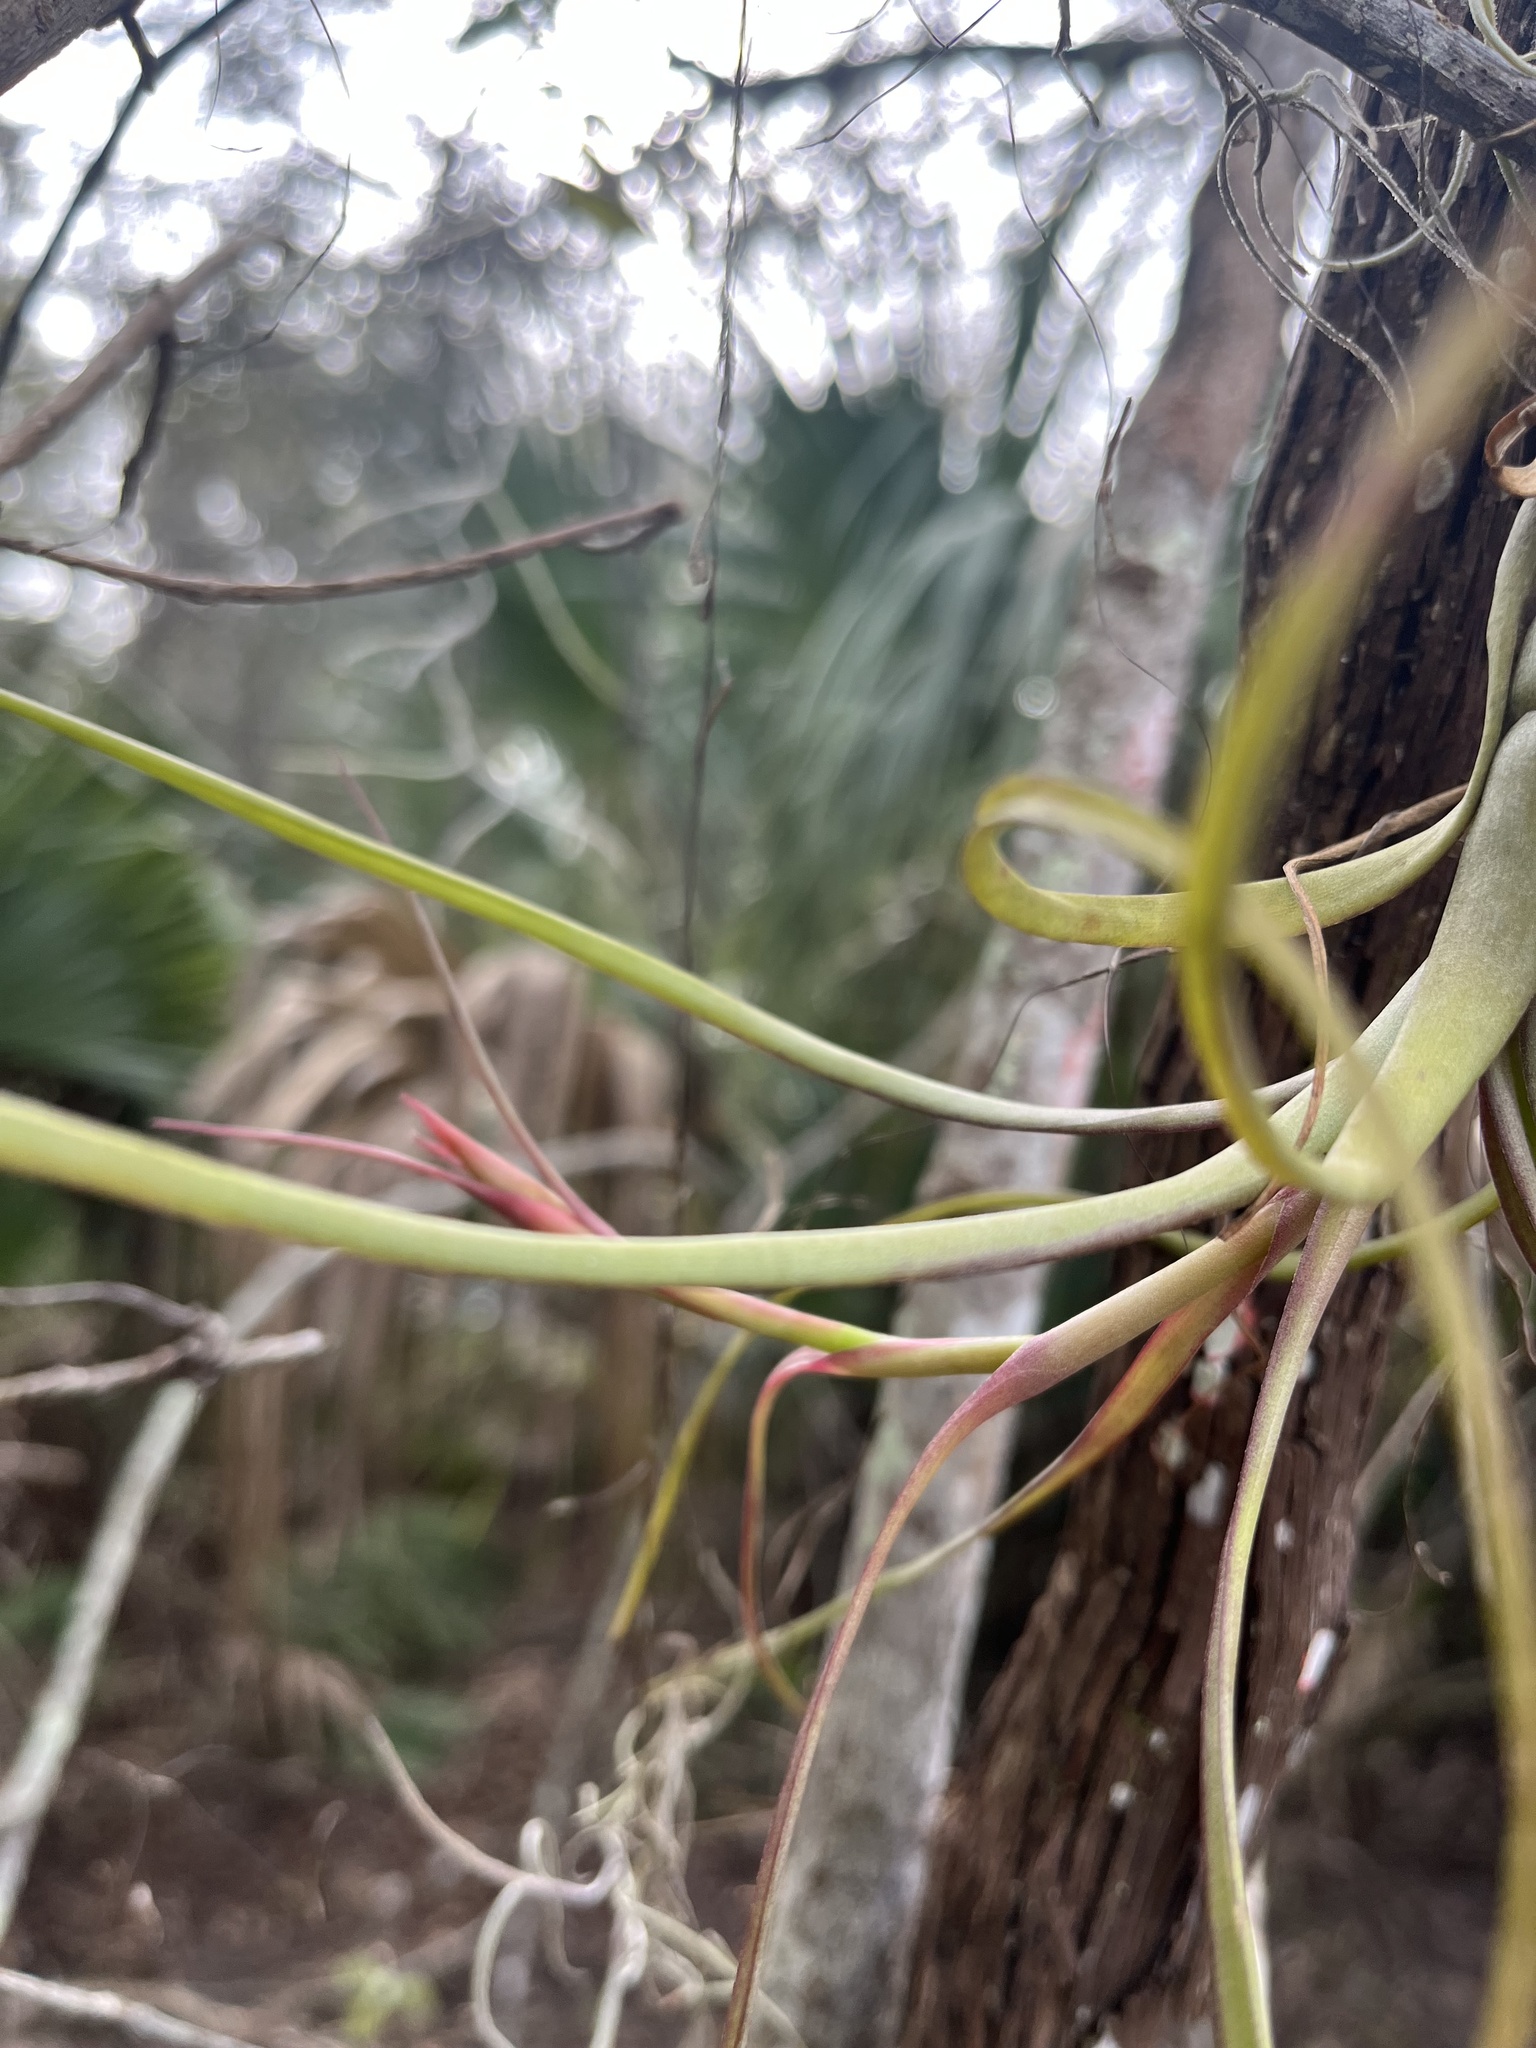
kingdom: Plantae
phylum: Tracheophyta
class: Liliopsida
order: Poales
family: Bromeliaceae
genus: Tillandsia
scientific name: Tillandsia balbisiana
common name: Northern needleleaf
